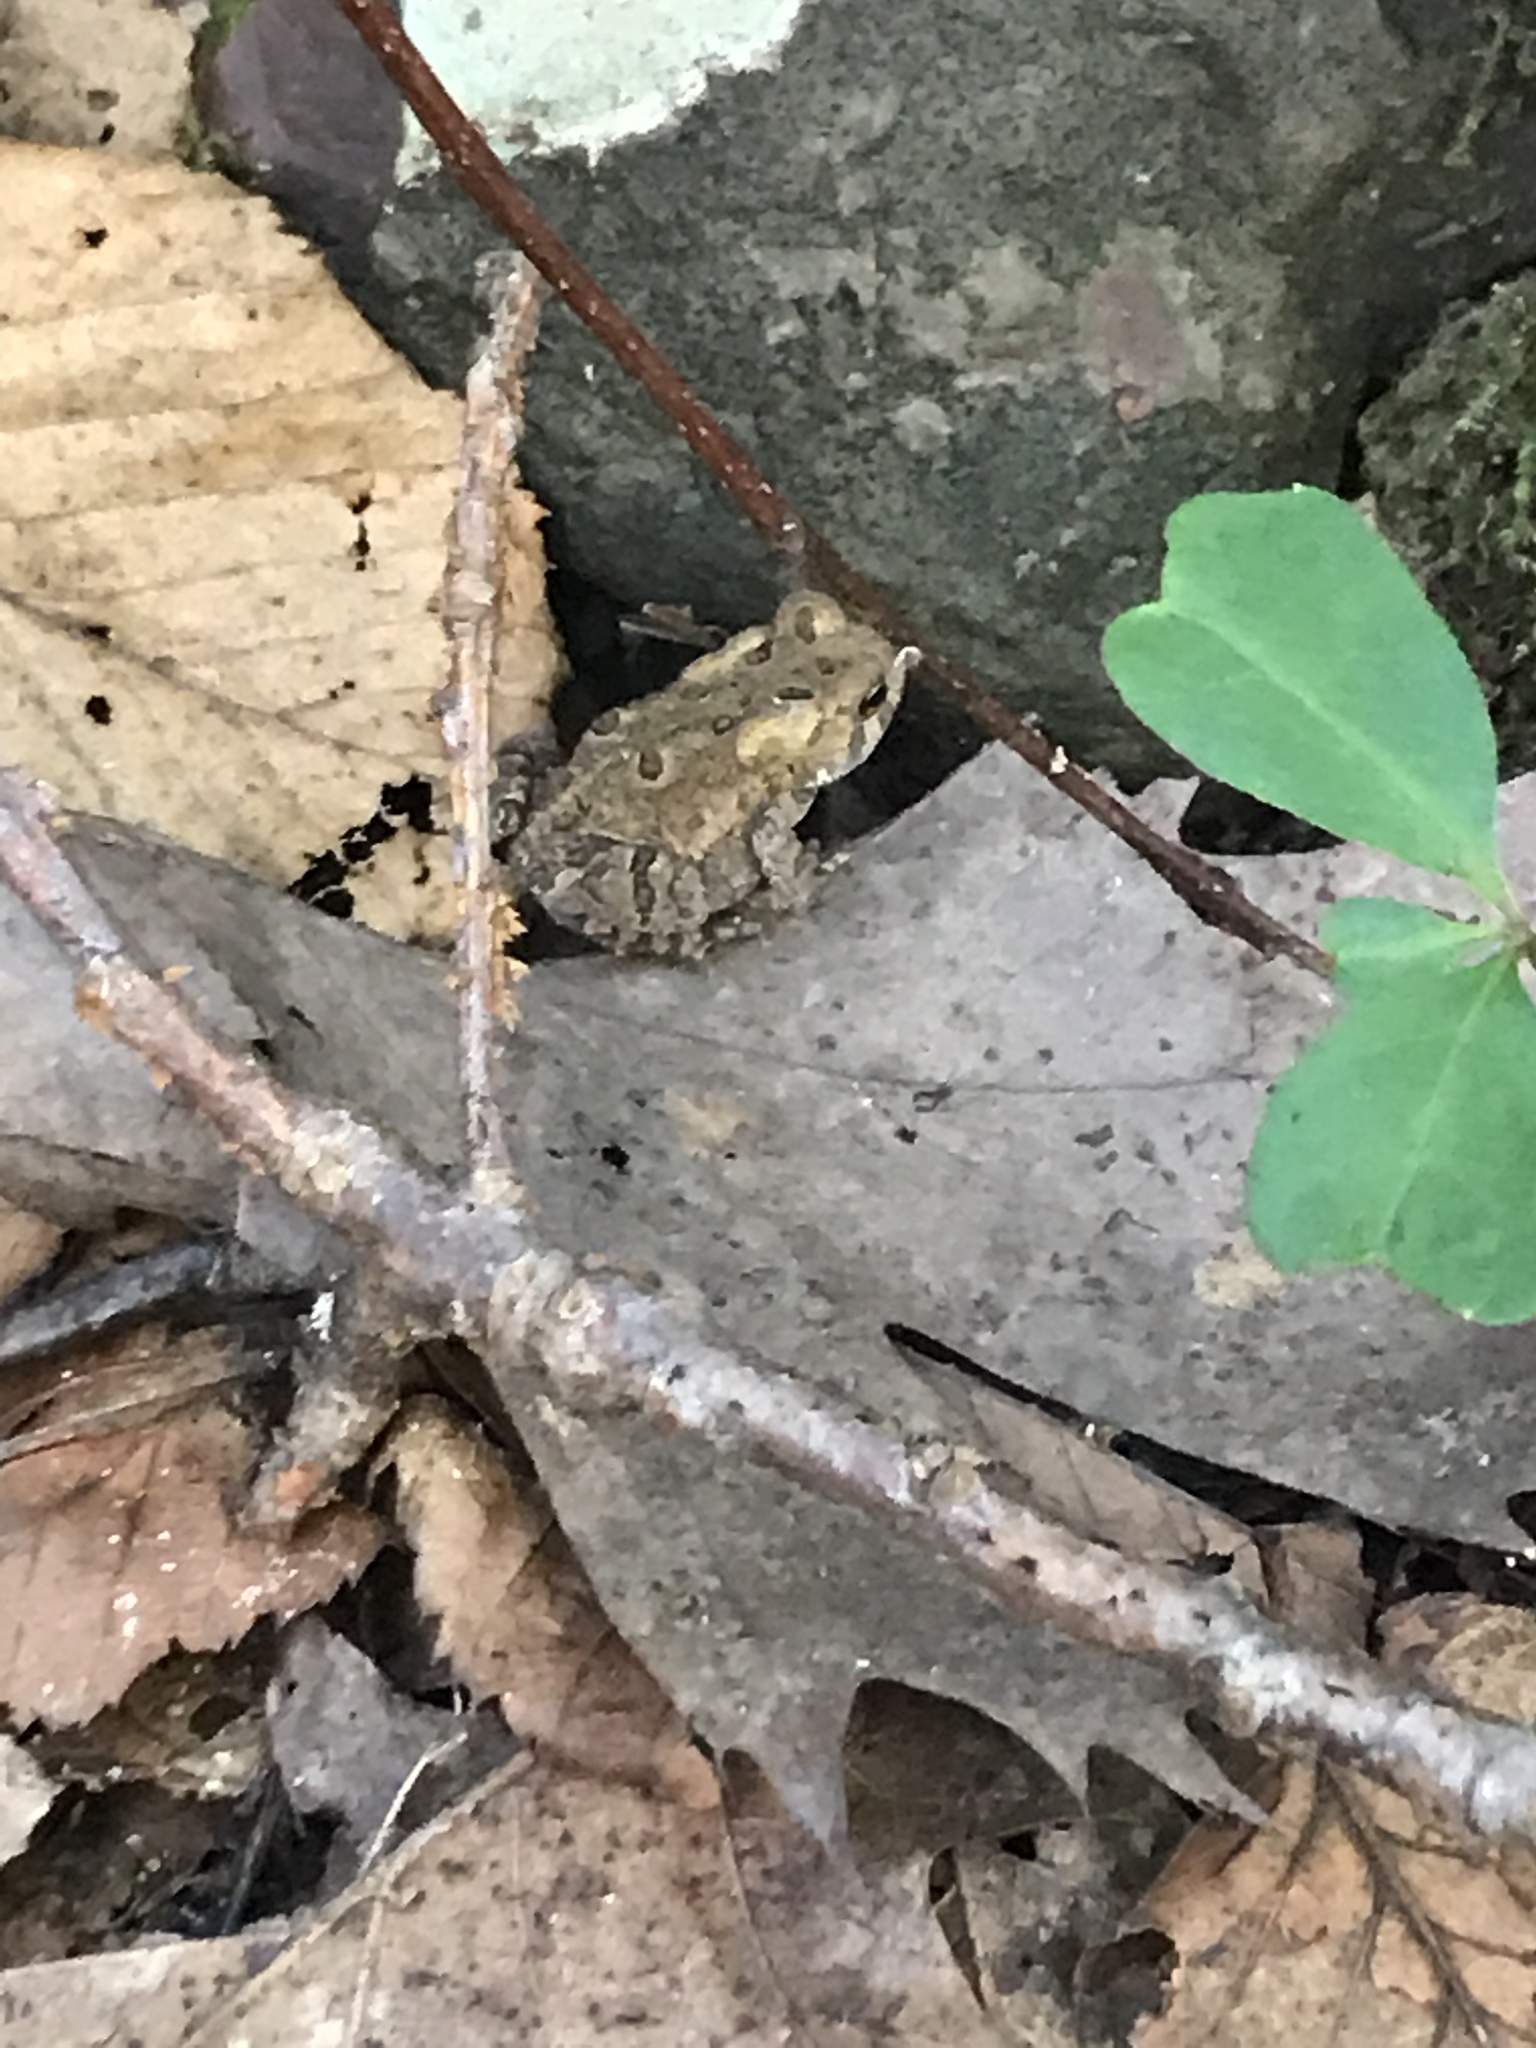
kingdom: Animalia
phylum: Chordata
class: Amphibia
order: Anura
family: Bufonidae
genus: Anaxyrus
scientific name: Anaxyrus americanus
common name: American toad
